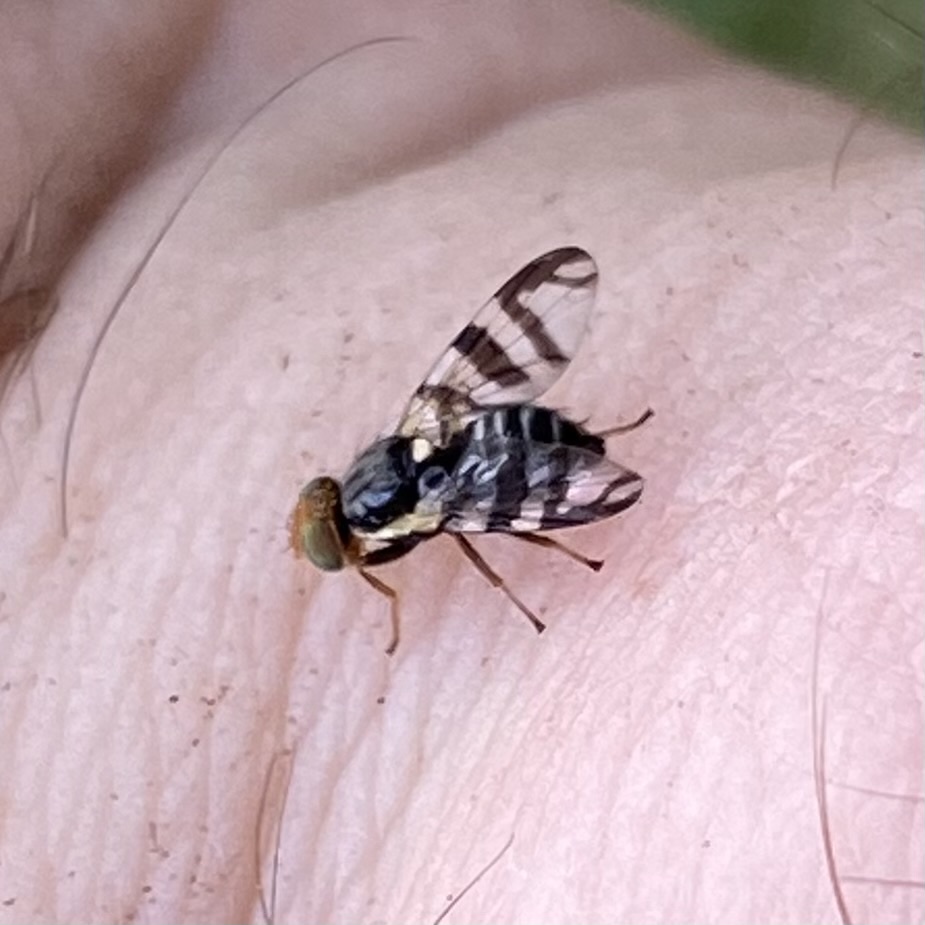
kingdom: Animalia
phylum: Arthropoda
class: Insecta
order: Diptera
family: Tephritidae
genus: Rhagoletis
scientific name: Rhagoletis indifferens
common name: North american cherry fruit fly
